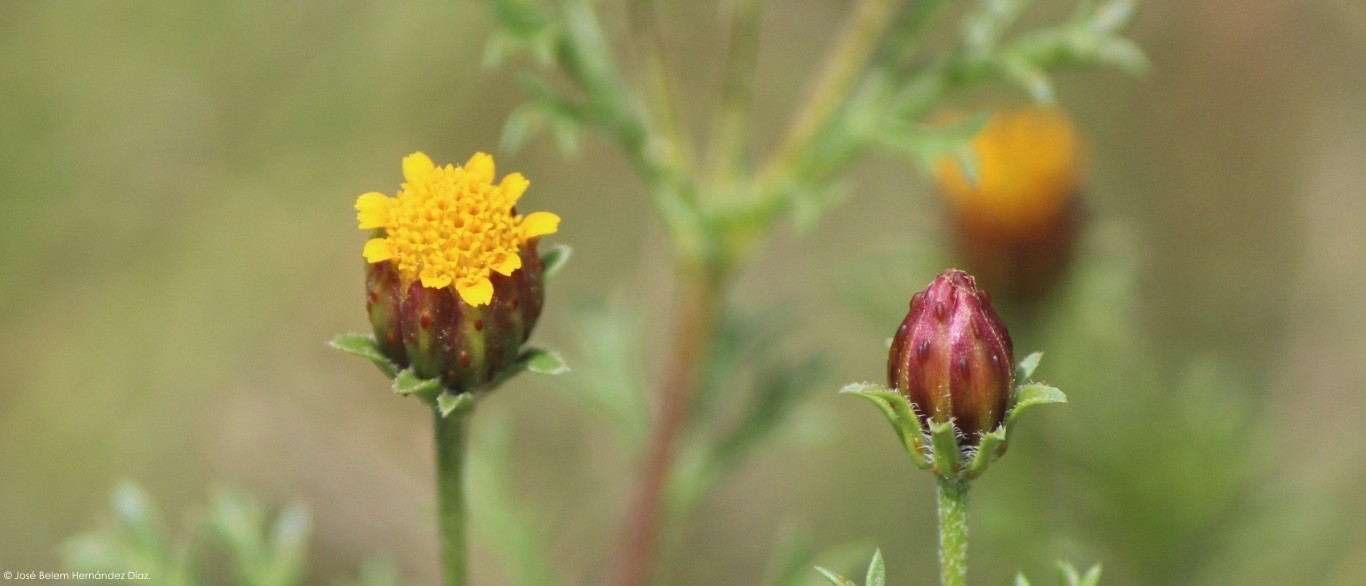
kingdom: Plantae
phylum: Tracheophyta
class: Magnoliopsida
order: Asterales
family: Asteraceae
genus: Dyssodia
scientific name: Dyssodia papposa
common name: Dogweed
